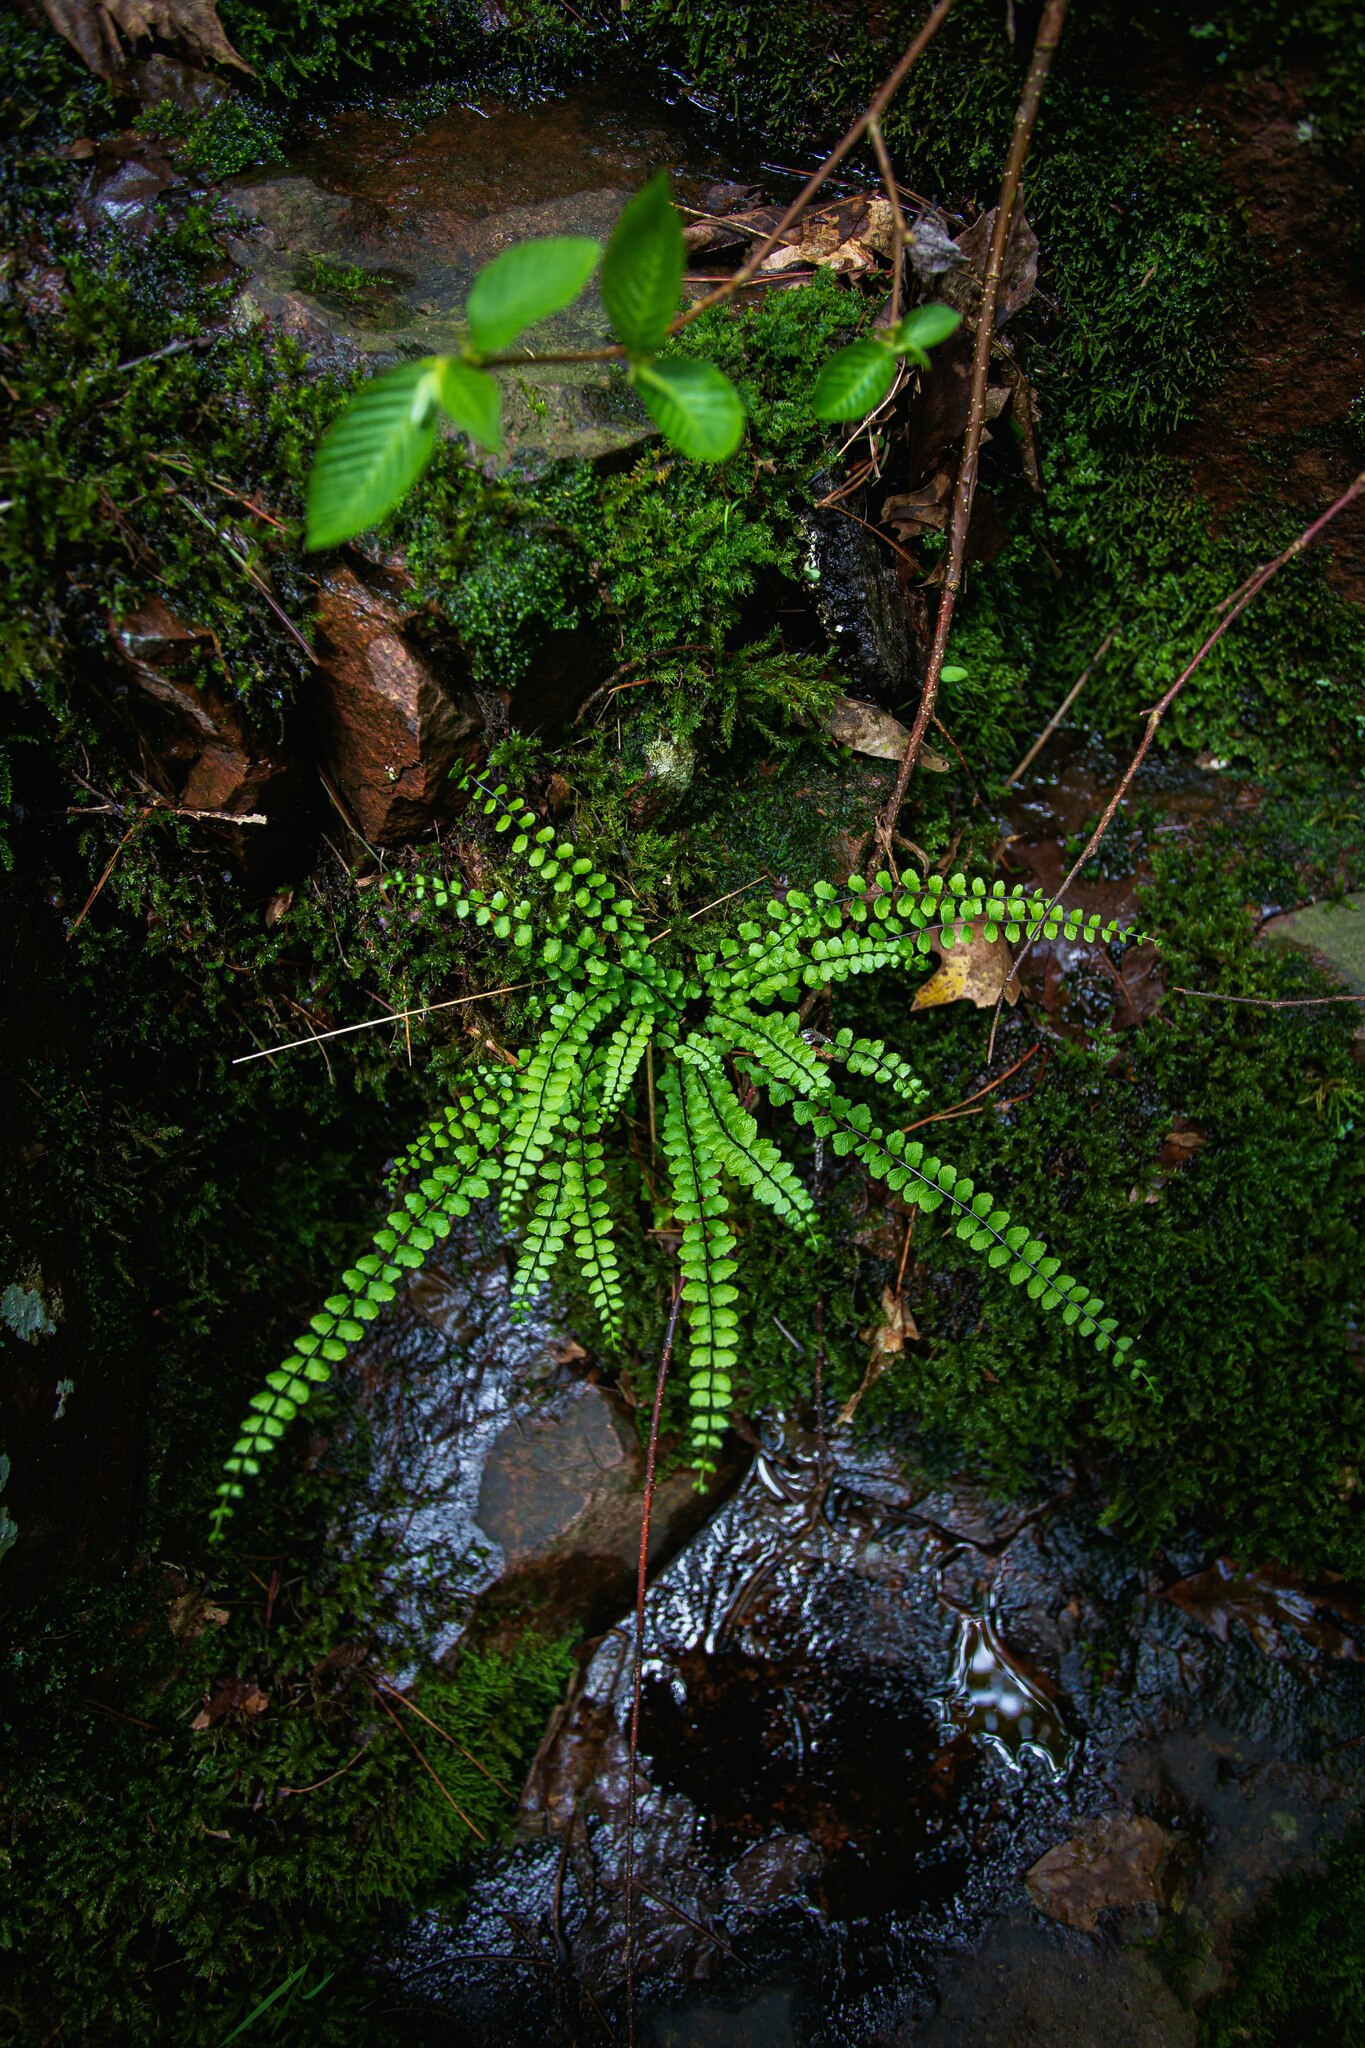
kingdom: Plantae
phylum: Tracheophyta
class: Polypodiopsida
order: Polypodiales
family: Aspleniaceae
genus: Asplenium
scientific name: Asplenium trichomanes
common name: Maidenhair spleenwort
